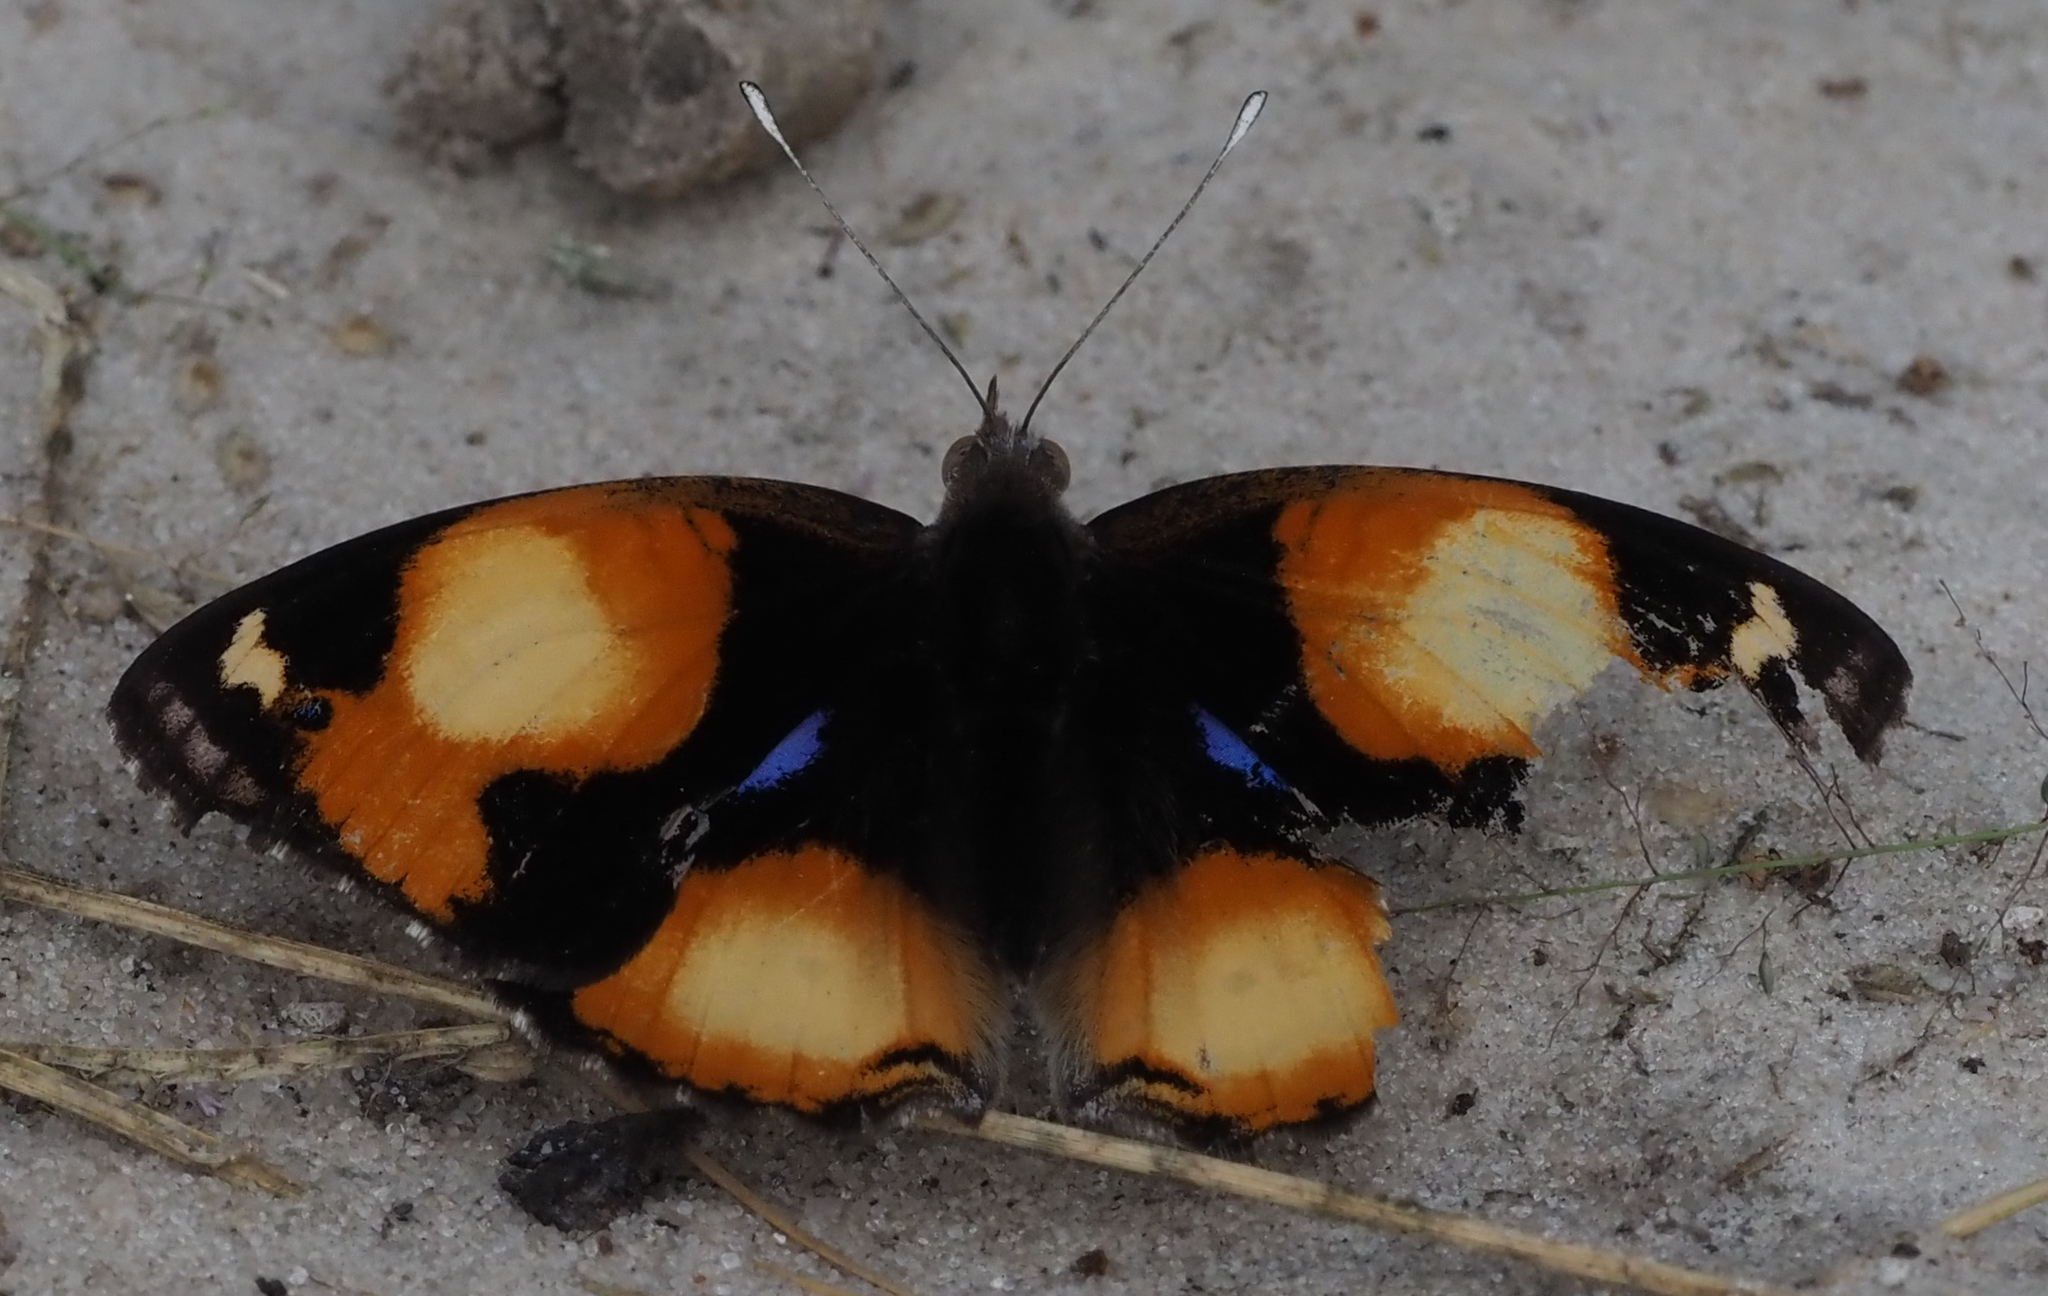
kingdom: Animalia
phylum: Arthropoda
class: Insecta
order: Lepidoptera
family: Nymphalidae
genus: Junonia
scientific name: Junonia hierta
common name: Yellow pansy
